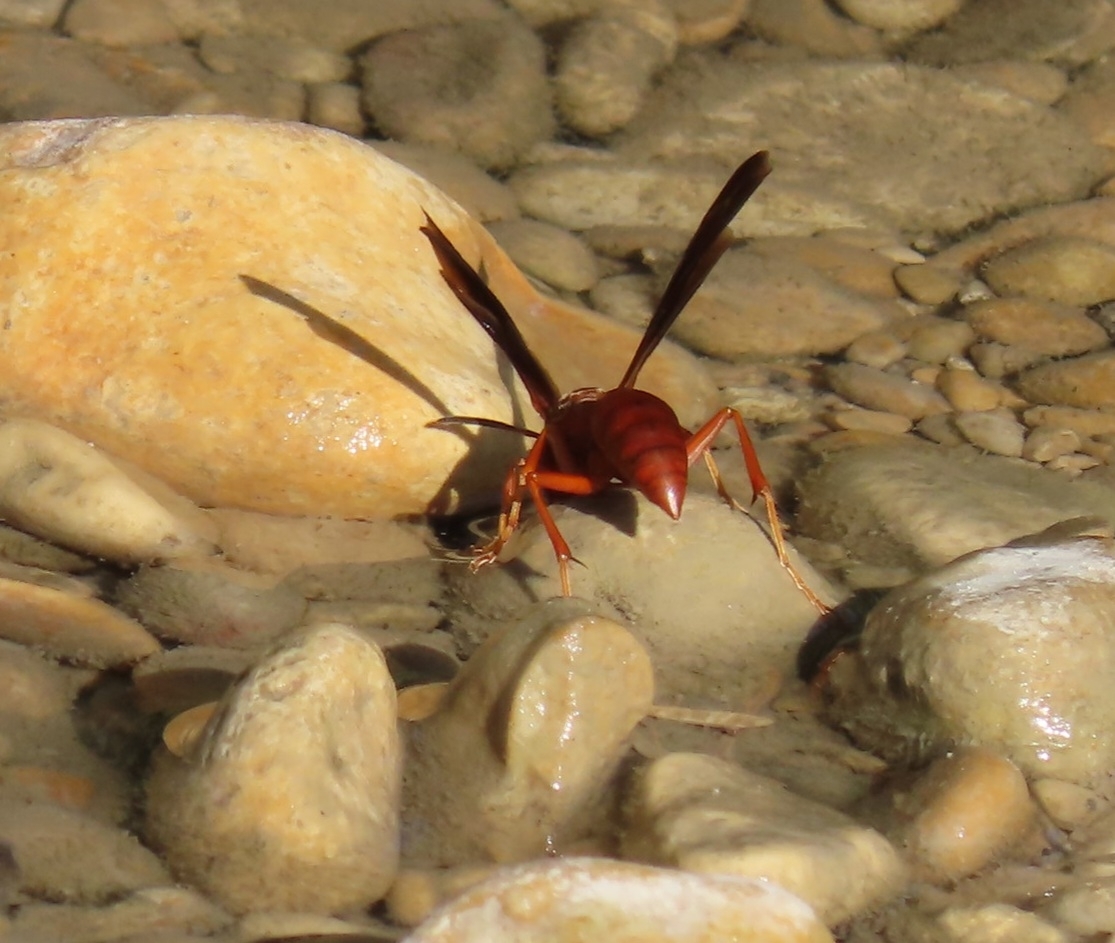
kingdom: Animalia
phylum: Arthropoda
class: Insecta
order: Hymenoptera
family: Vespidae
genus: Fuscopolistes
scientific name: Fuscopolistes
